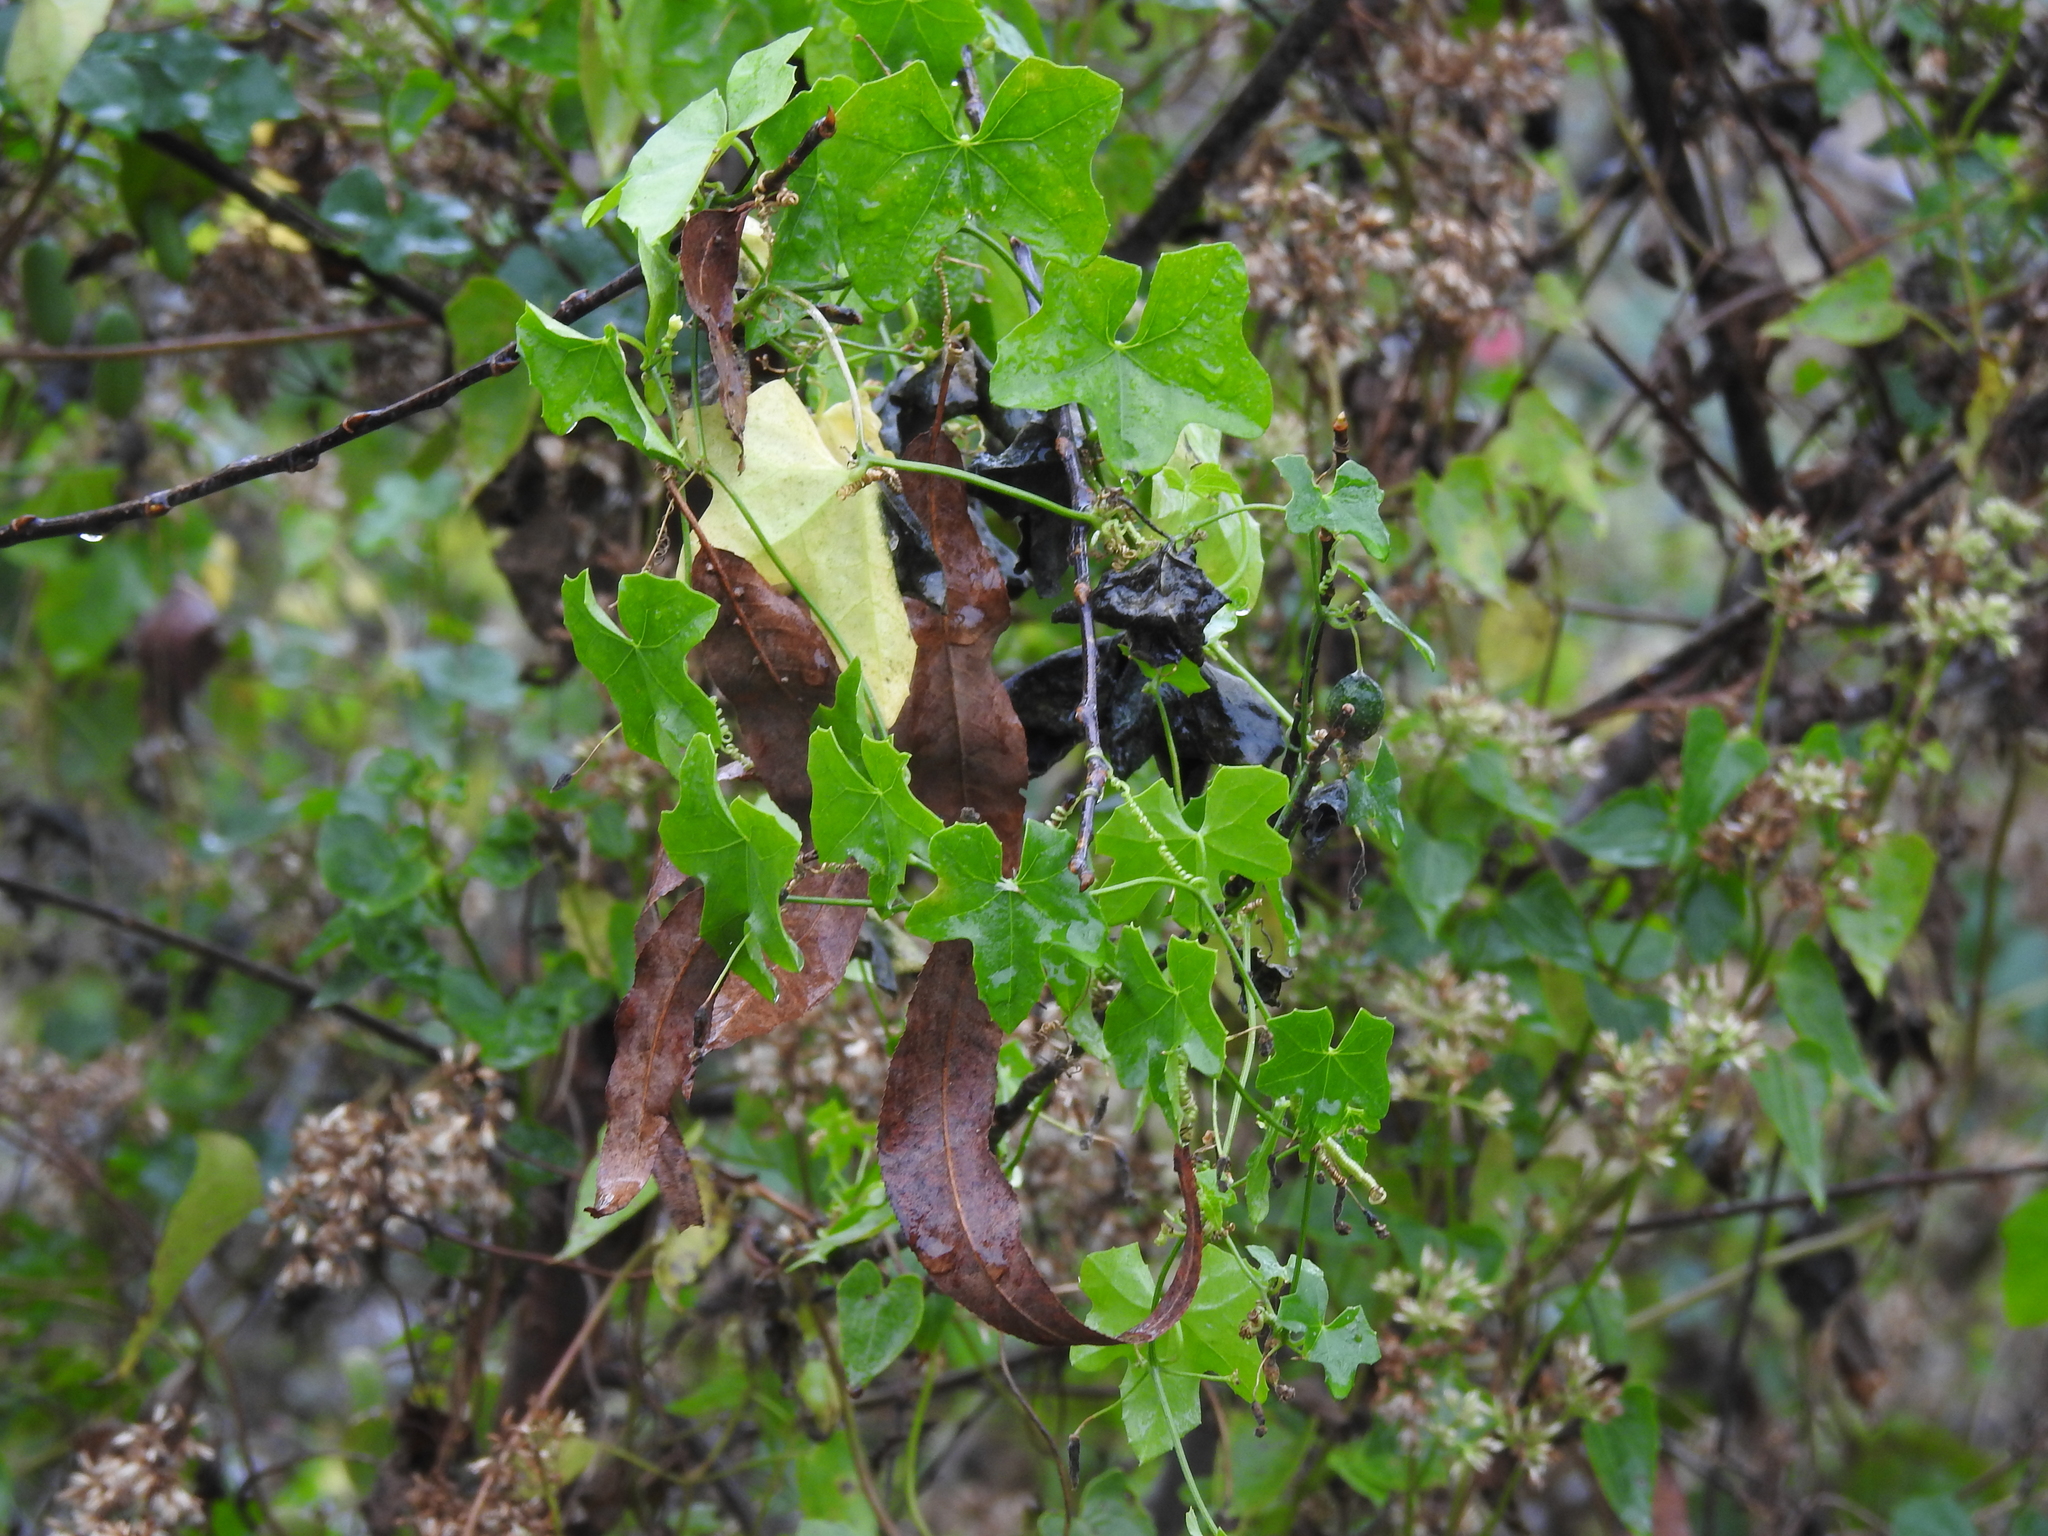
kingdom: Plantae
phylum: Tracheophyta
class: Magnoliopsida
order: Cucurbitales
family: Cucurbitaceae
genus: Melothria
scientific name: Melothria pendula
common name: Creeping-cucumber
